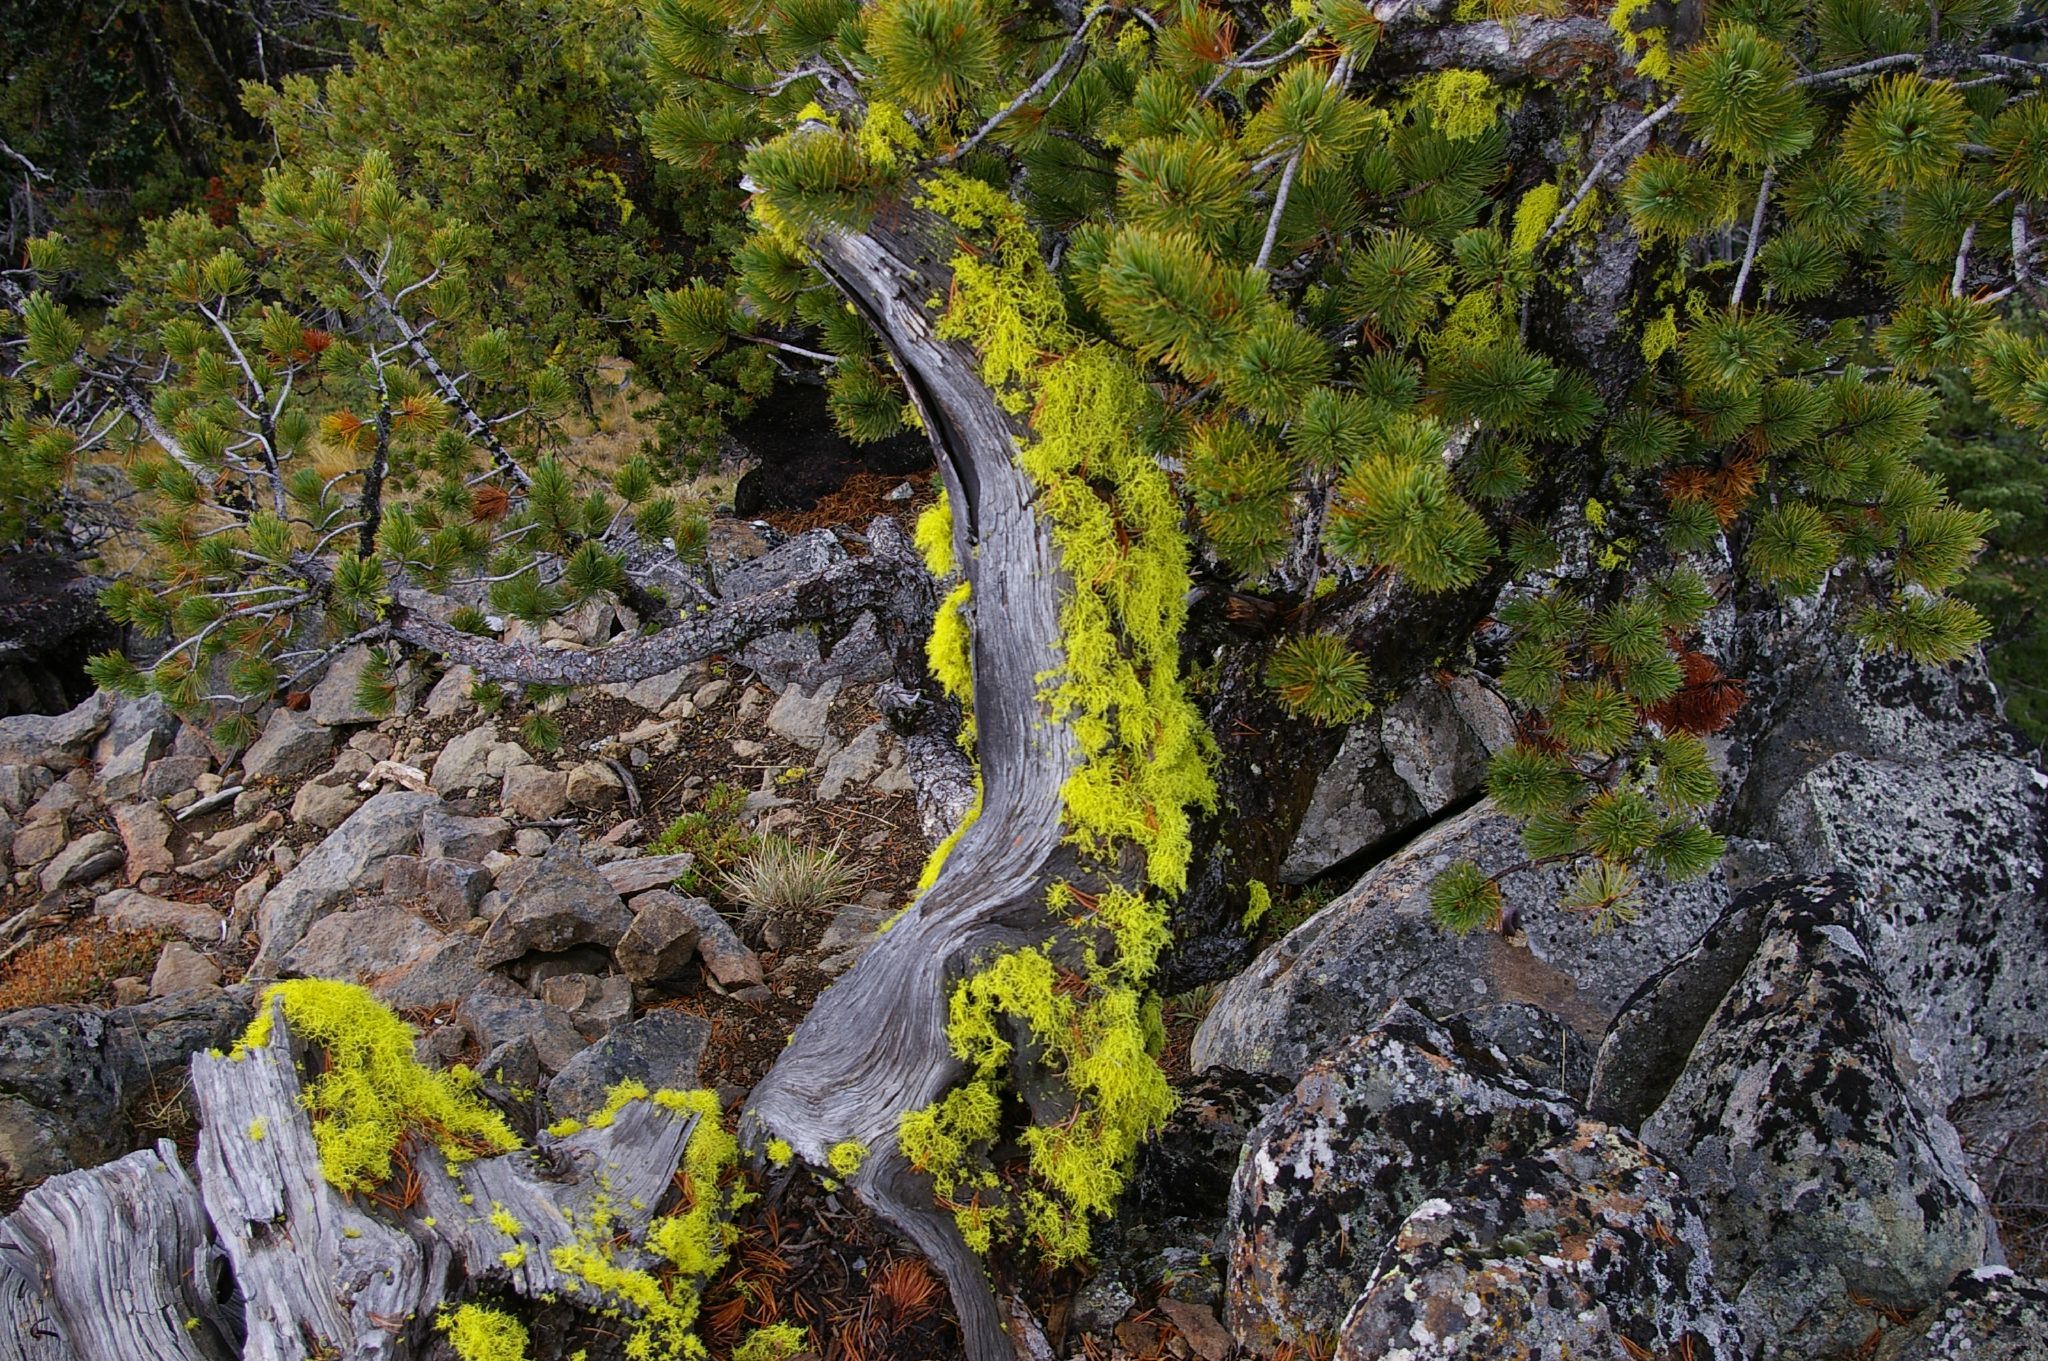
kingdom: Fungi
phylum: Ascomycota
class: Lecanoromycetes
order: Lecanorales
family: Parmeliaceae
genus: Letharia
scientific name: Letharia vulpina
